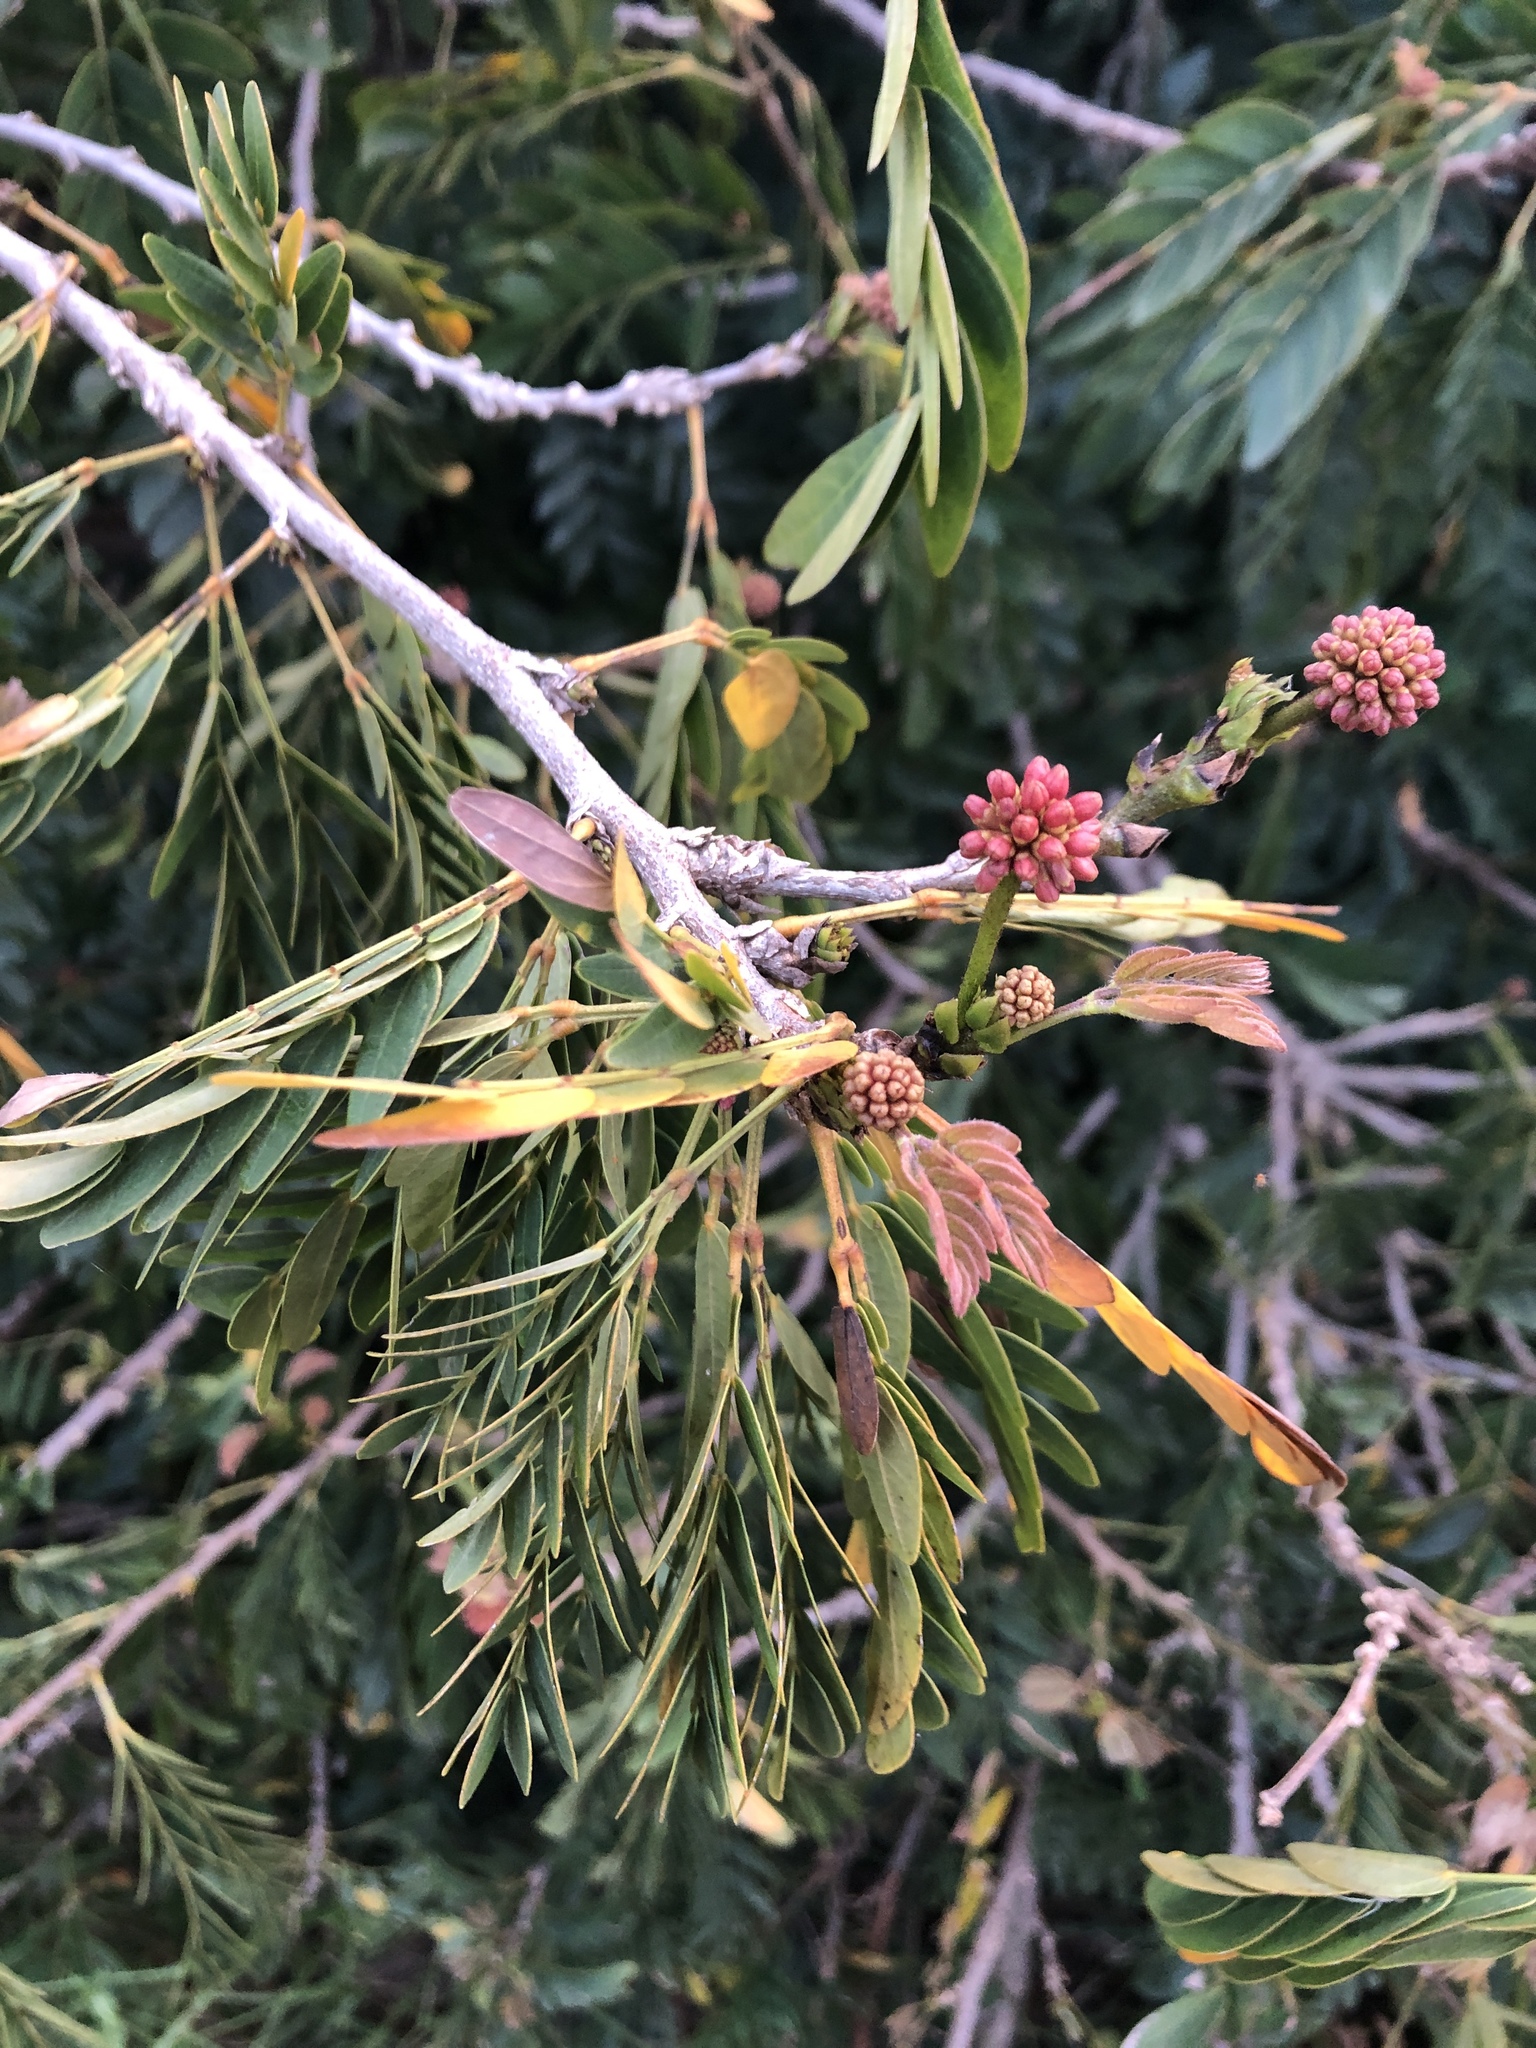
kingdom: Plantae
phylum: Tracheophyta
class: Magnoliopsida
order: Fabales
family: Fabaceae
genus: Calliandra
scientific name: Calliandra tweediei
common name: Mexican flamebush
